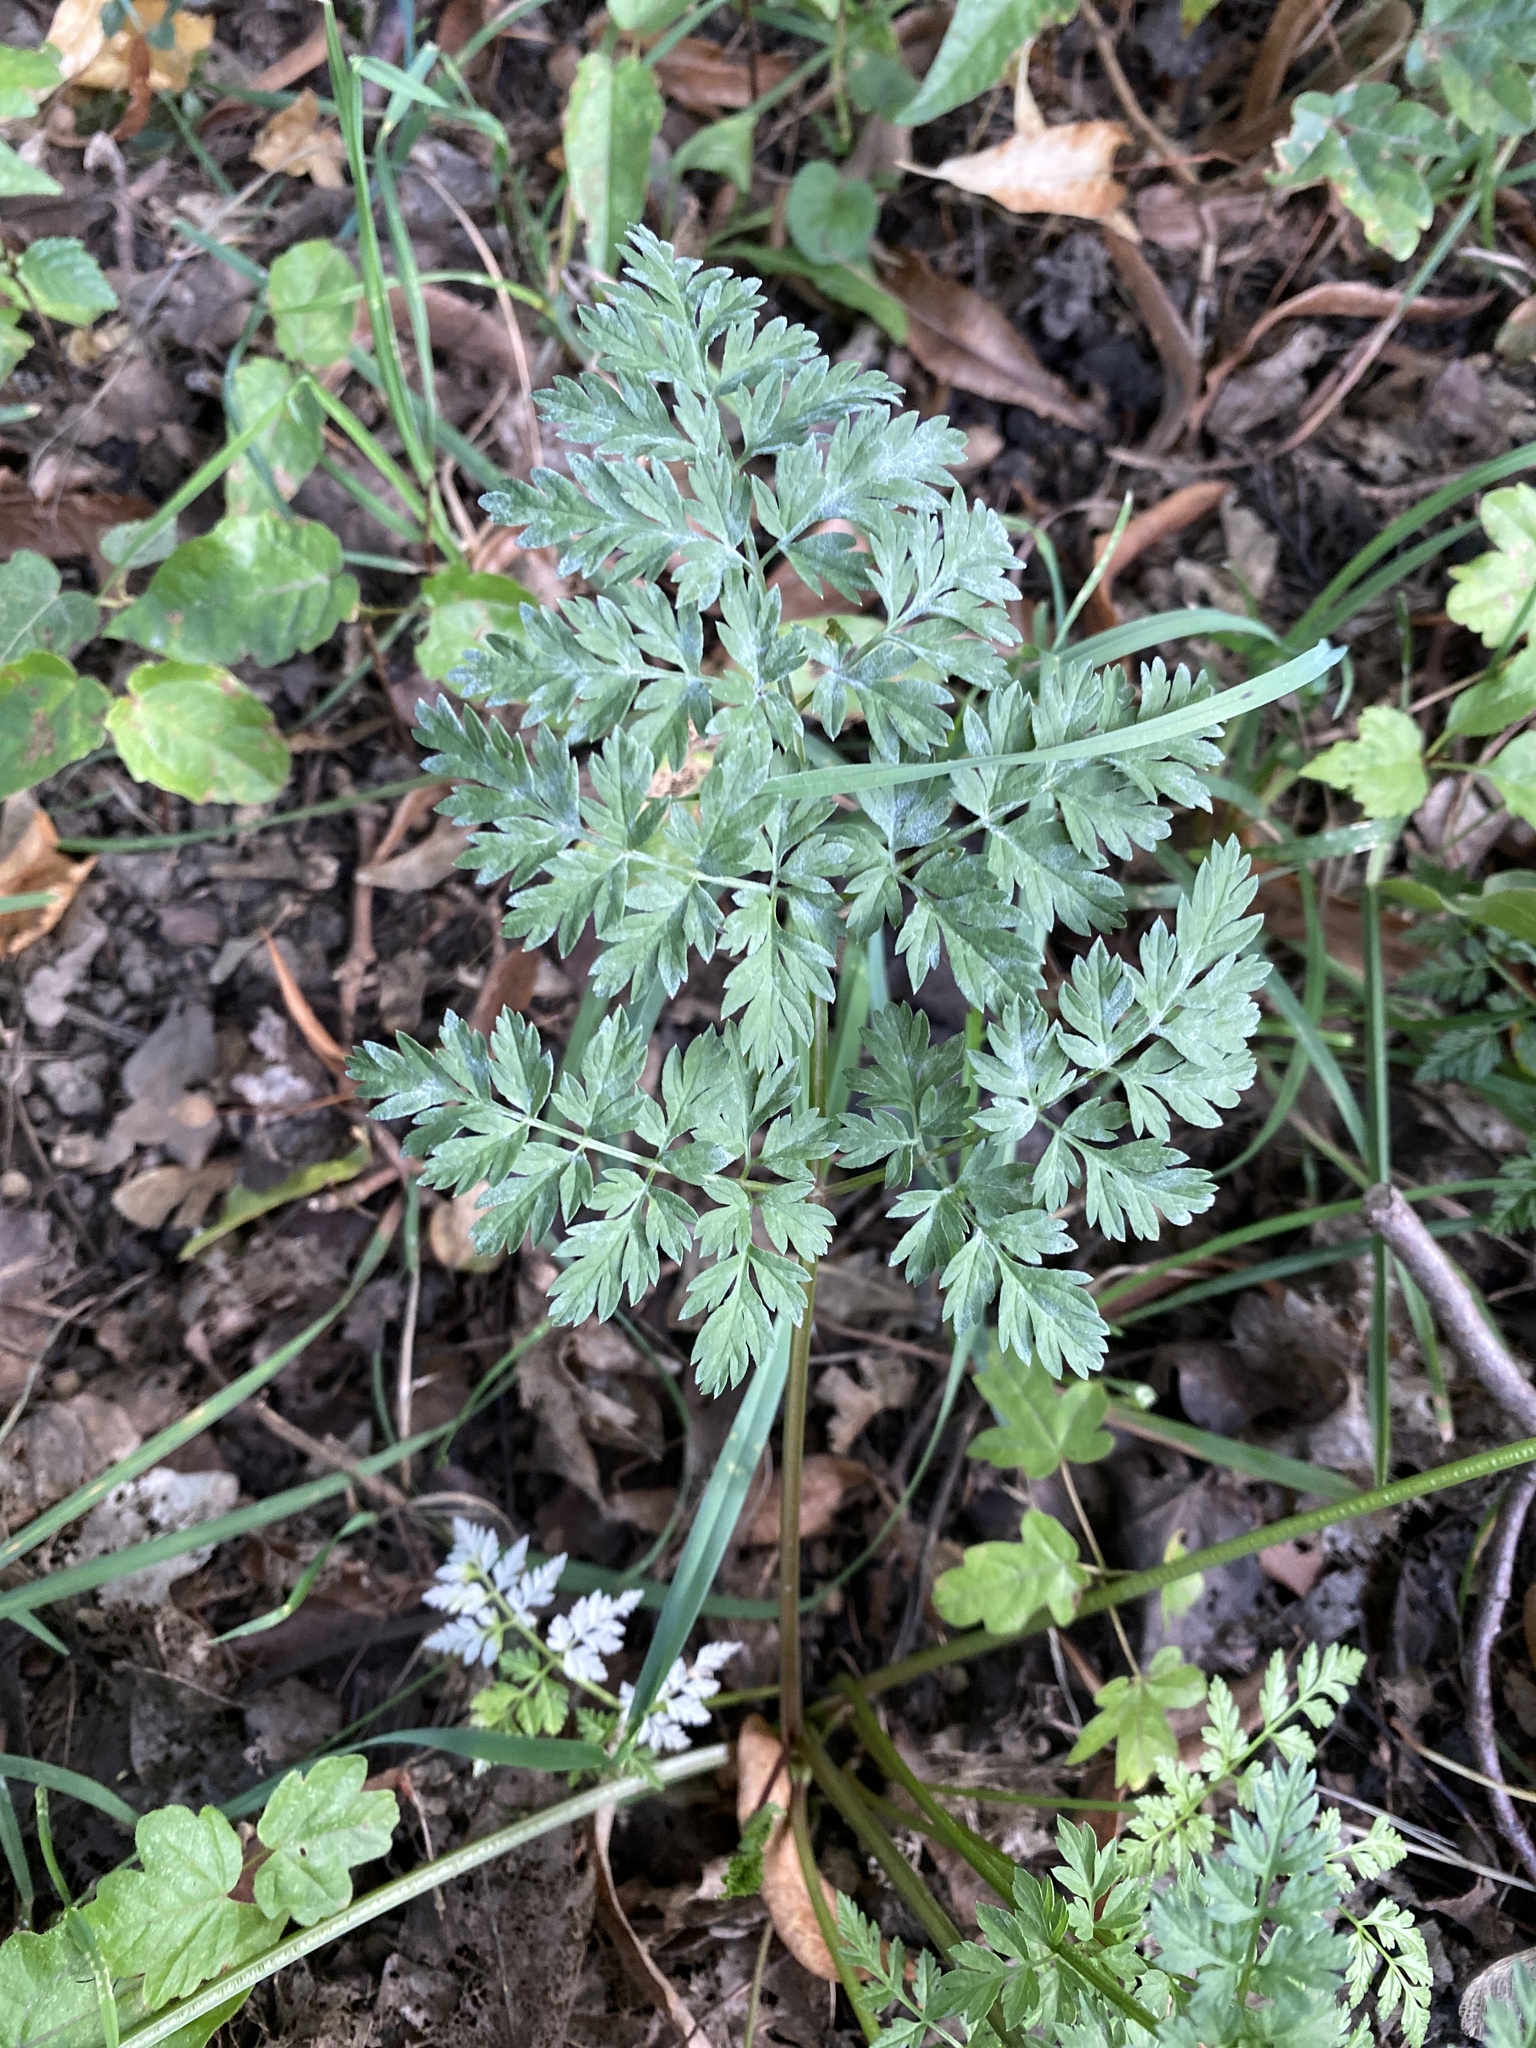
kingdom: Plantae
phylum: Tracheophyta
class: Magnoliopsida
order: Apiales
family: Apiaceae
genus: Anthriscus
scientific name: Anthriscus sylvestris
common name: Cow parsley
